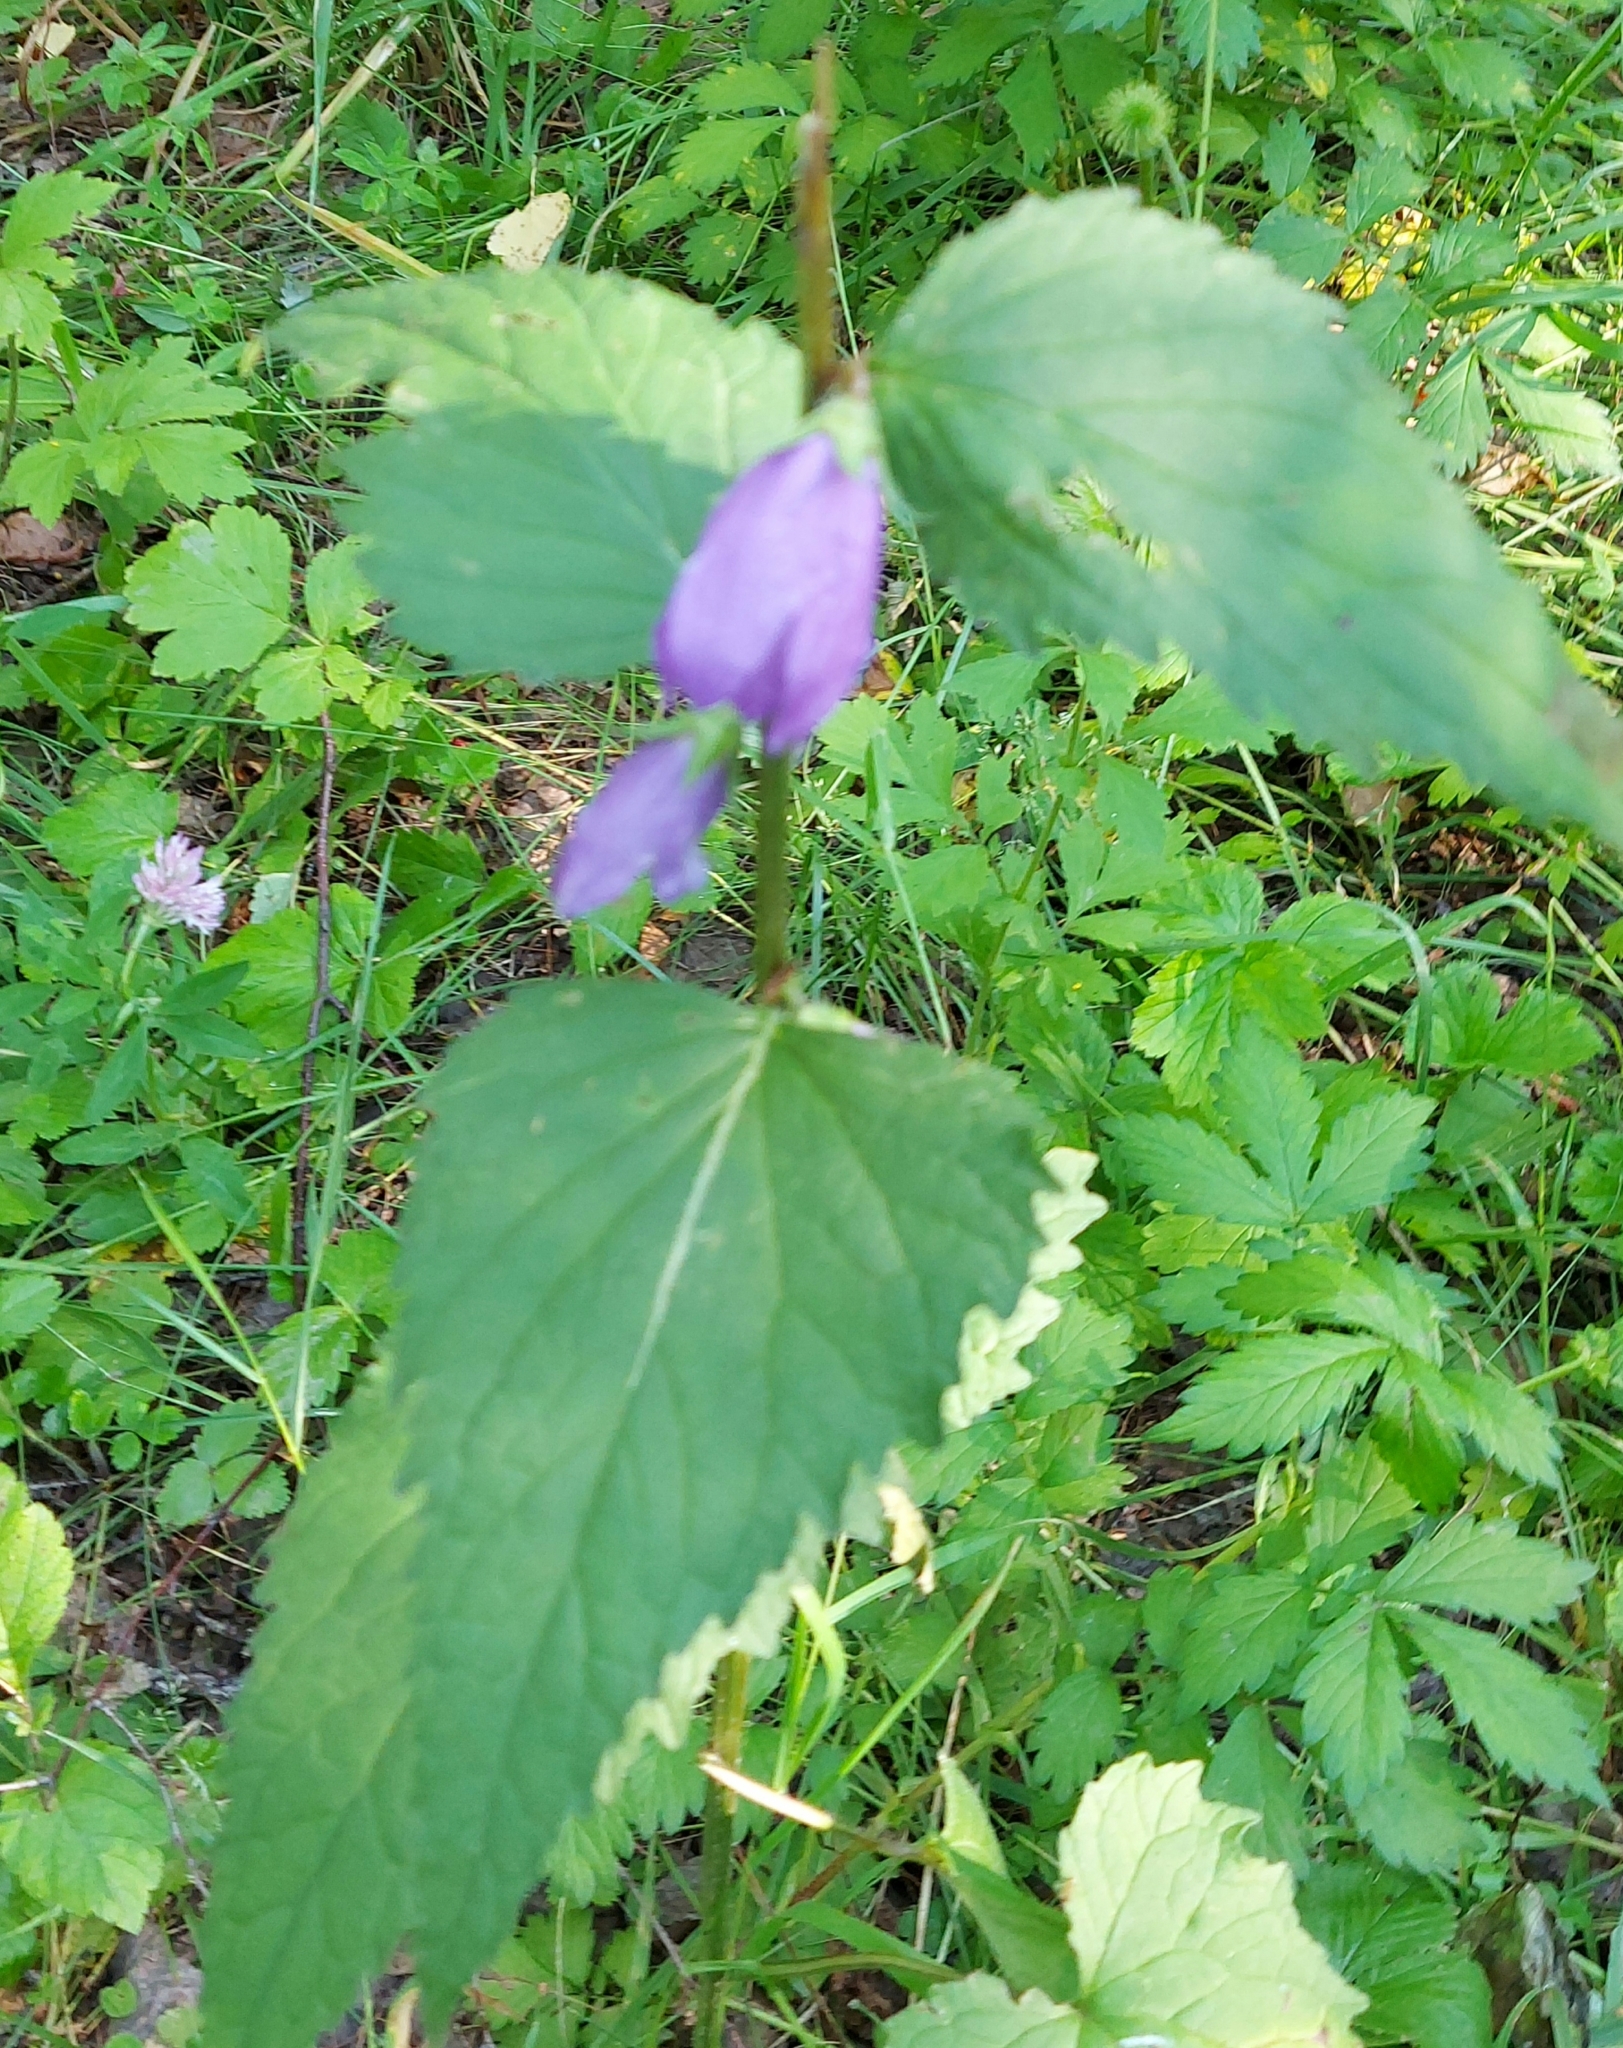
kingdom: Plantae
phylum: Tracheophyta
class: Magnoliopsida
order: Asterales
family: Campanulaceae
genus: Campanula
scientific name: Campanula trachelium
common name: Nettle-leaved bellflower
